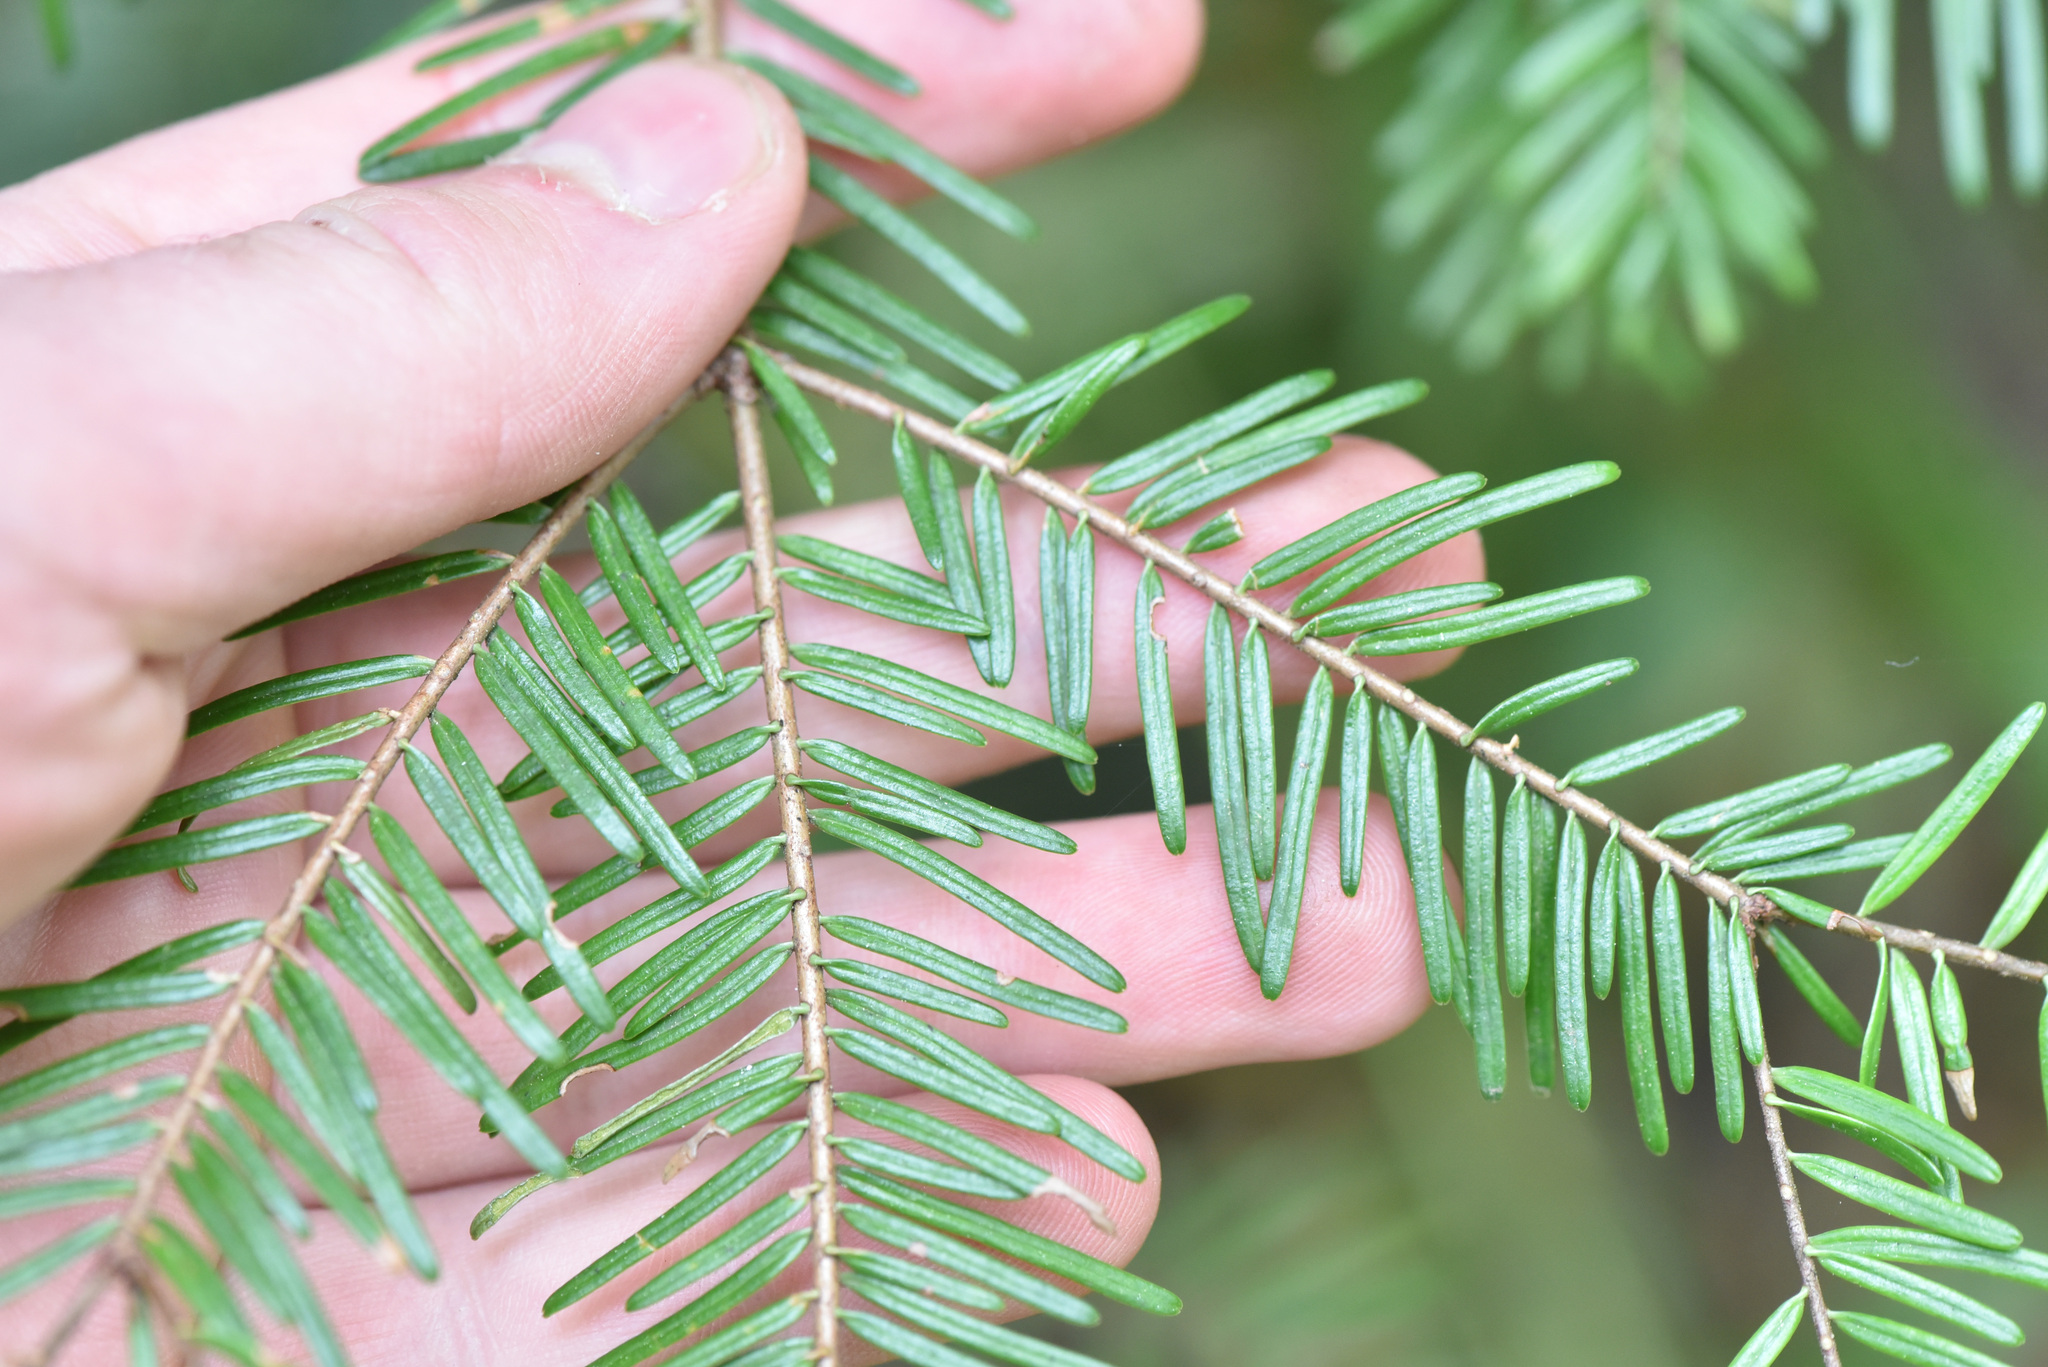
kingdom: Plantae
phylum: Tracheophyta
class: Pinopsida
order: Pinales
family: Pinaceae
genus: Abies
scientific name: Abies grandis
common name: Giant fir
